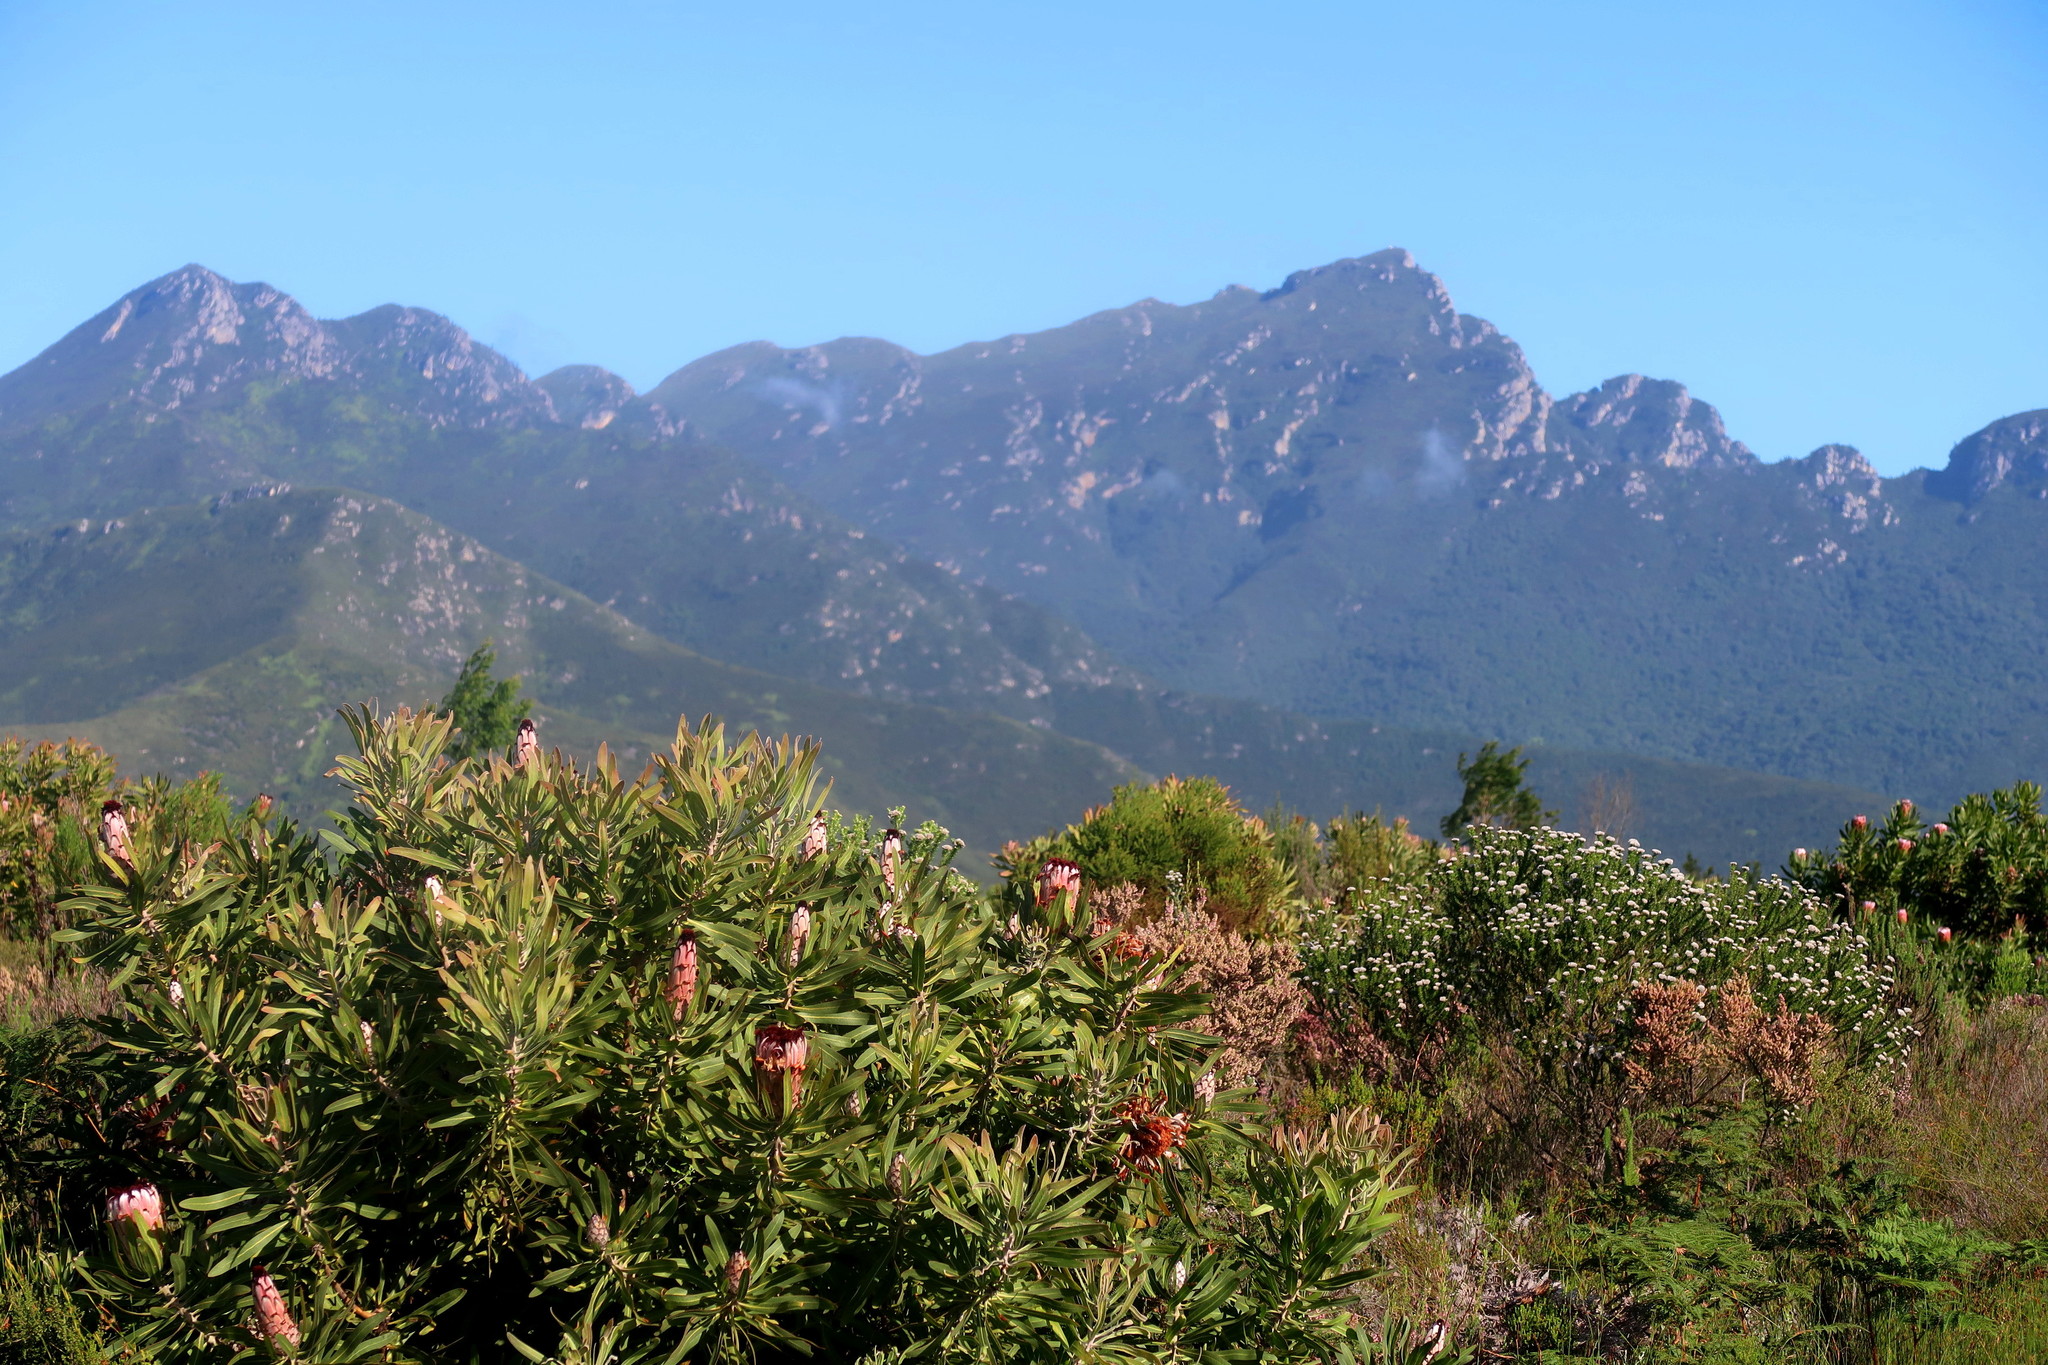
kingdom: Plantae
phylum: Tracheophyta
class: Magnoliopsida
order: Proteales
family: Proteaceae
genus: Protea
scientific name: Protea neriifolia
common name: Blue sugarbush
